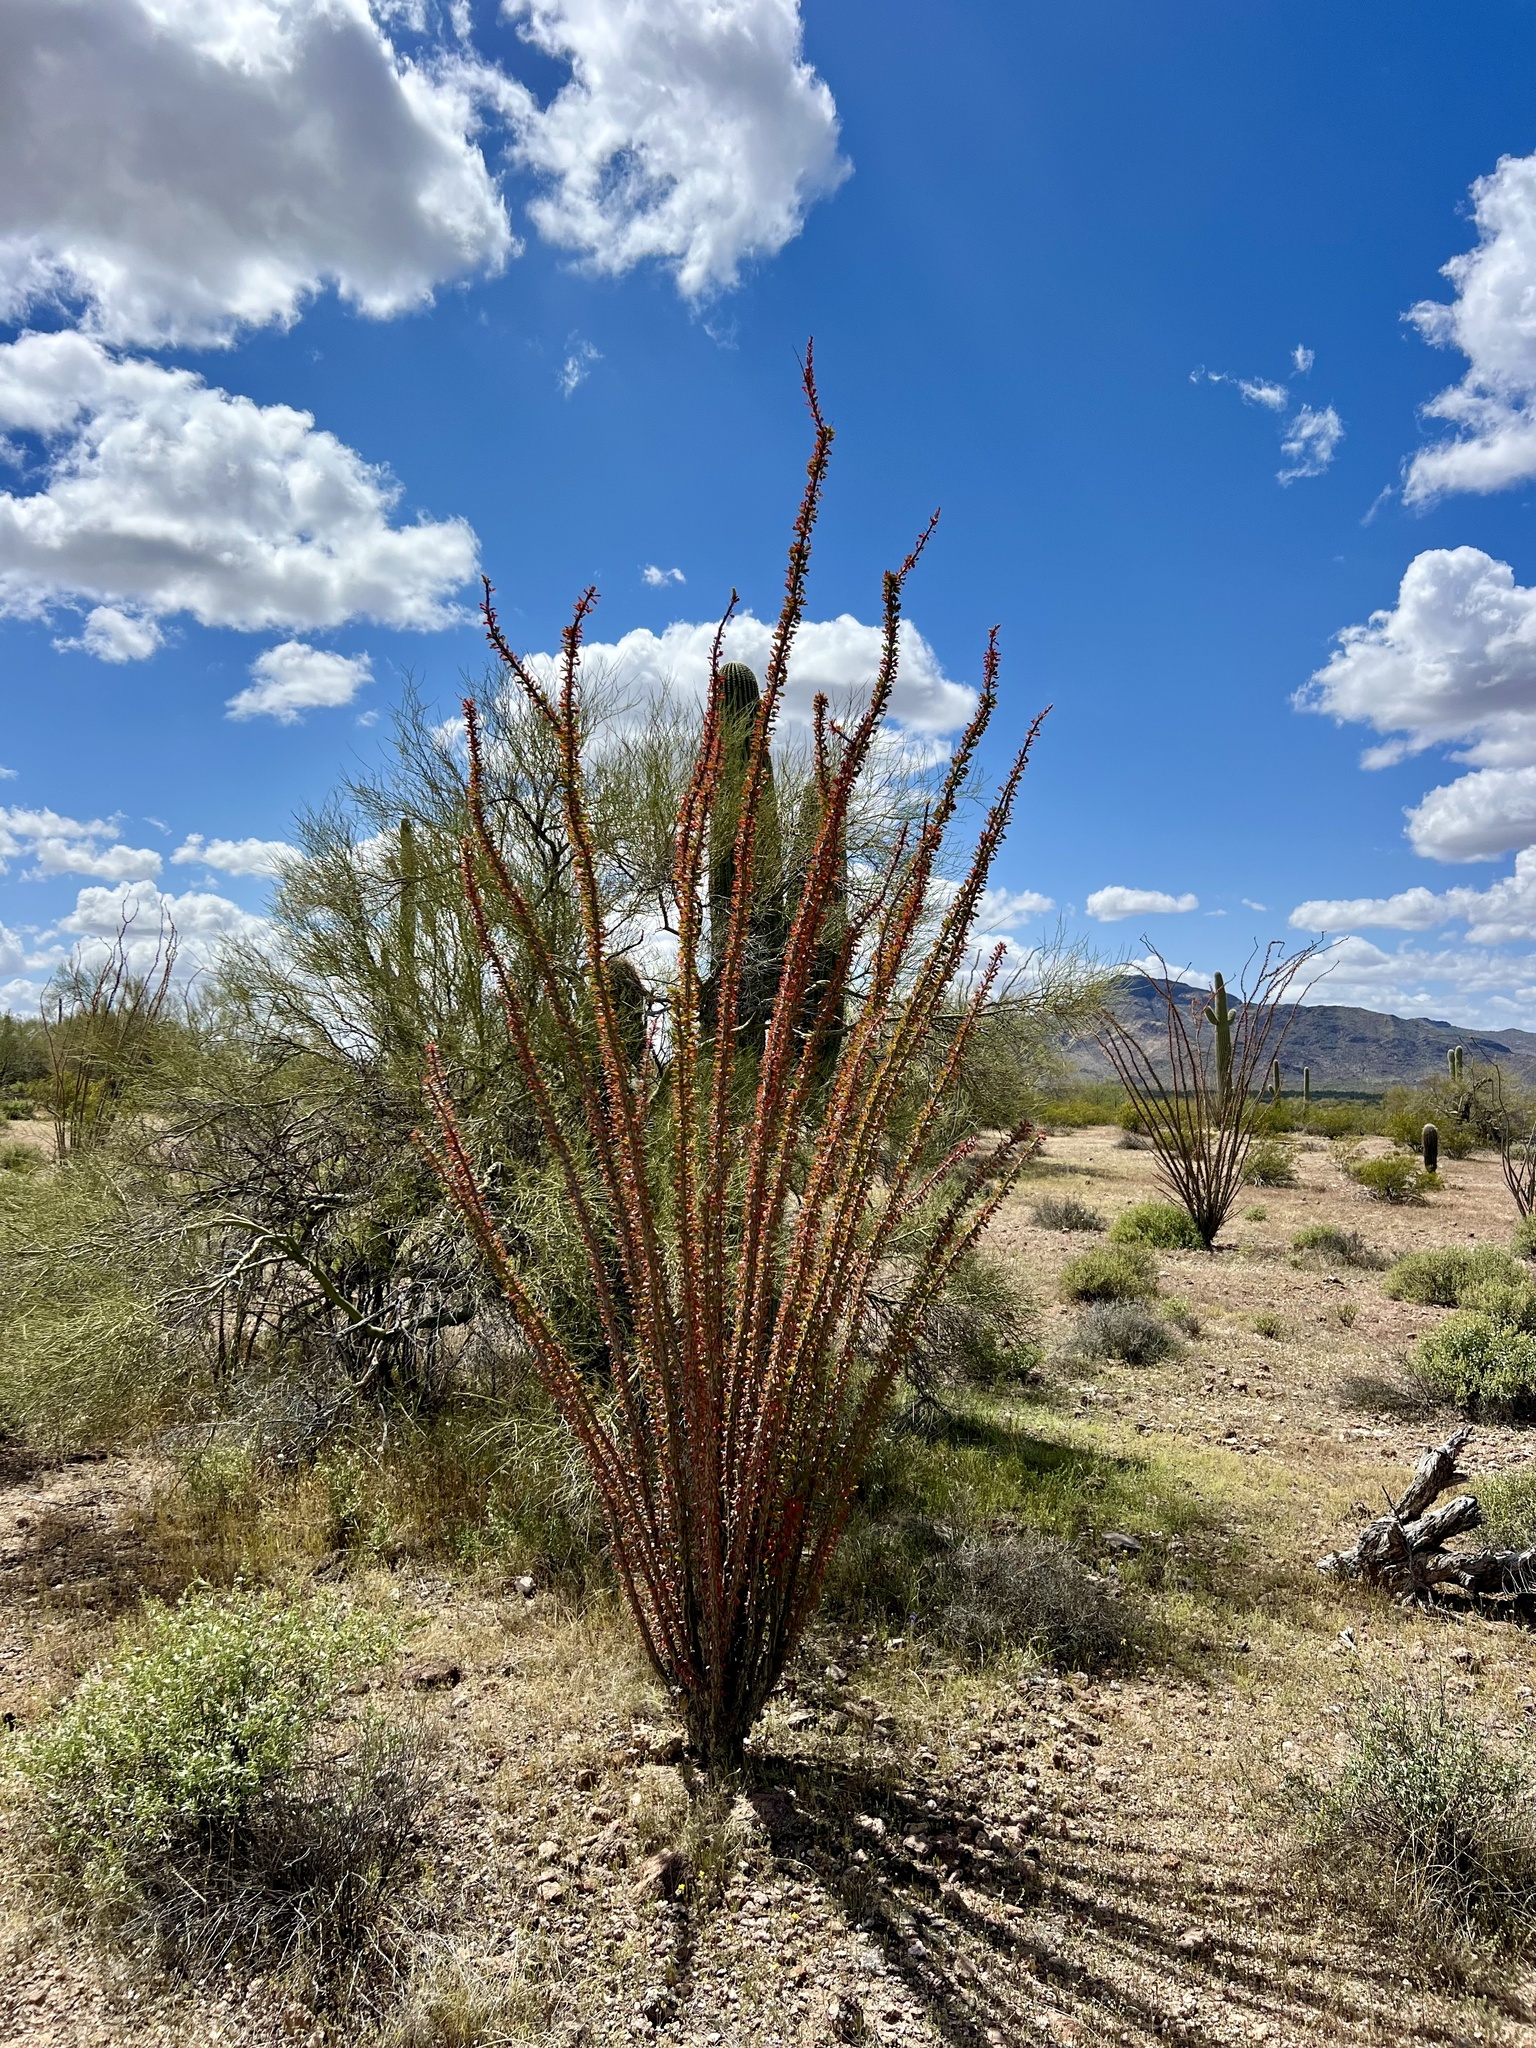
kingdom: Plantae
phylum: Tracheophyta
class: Magnoliopsida
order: Ericales
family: Fouquieriaceae
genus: Fouquieria
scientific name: Fouquieria splendens
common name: Vine-cactus
